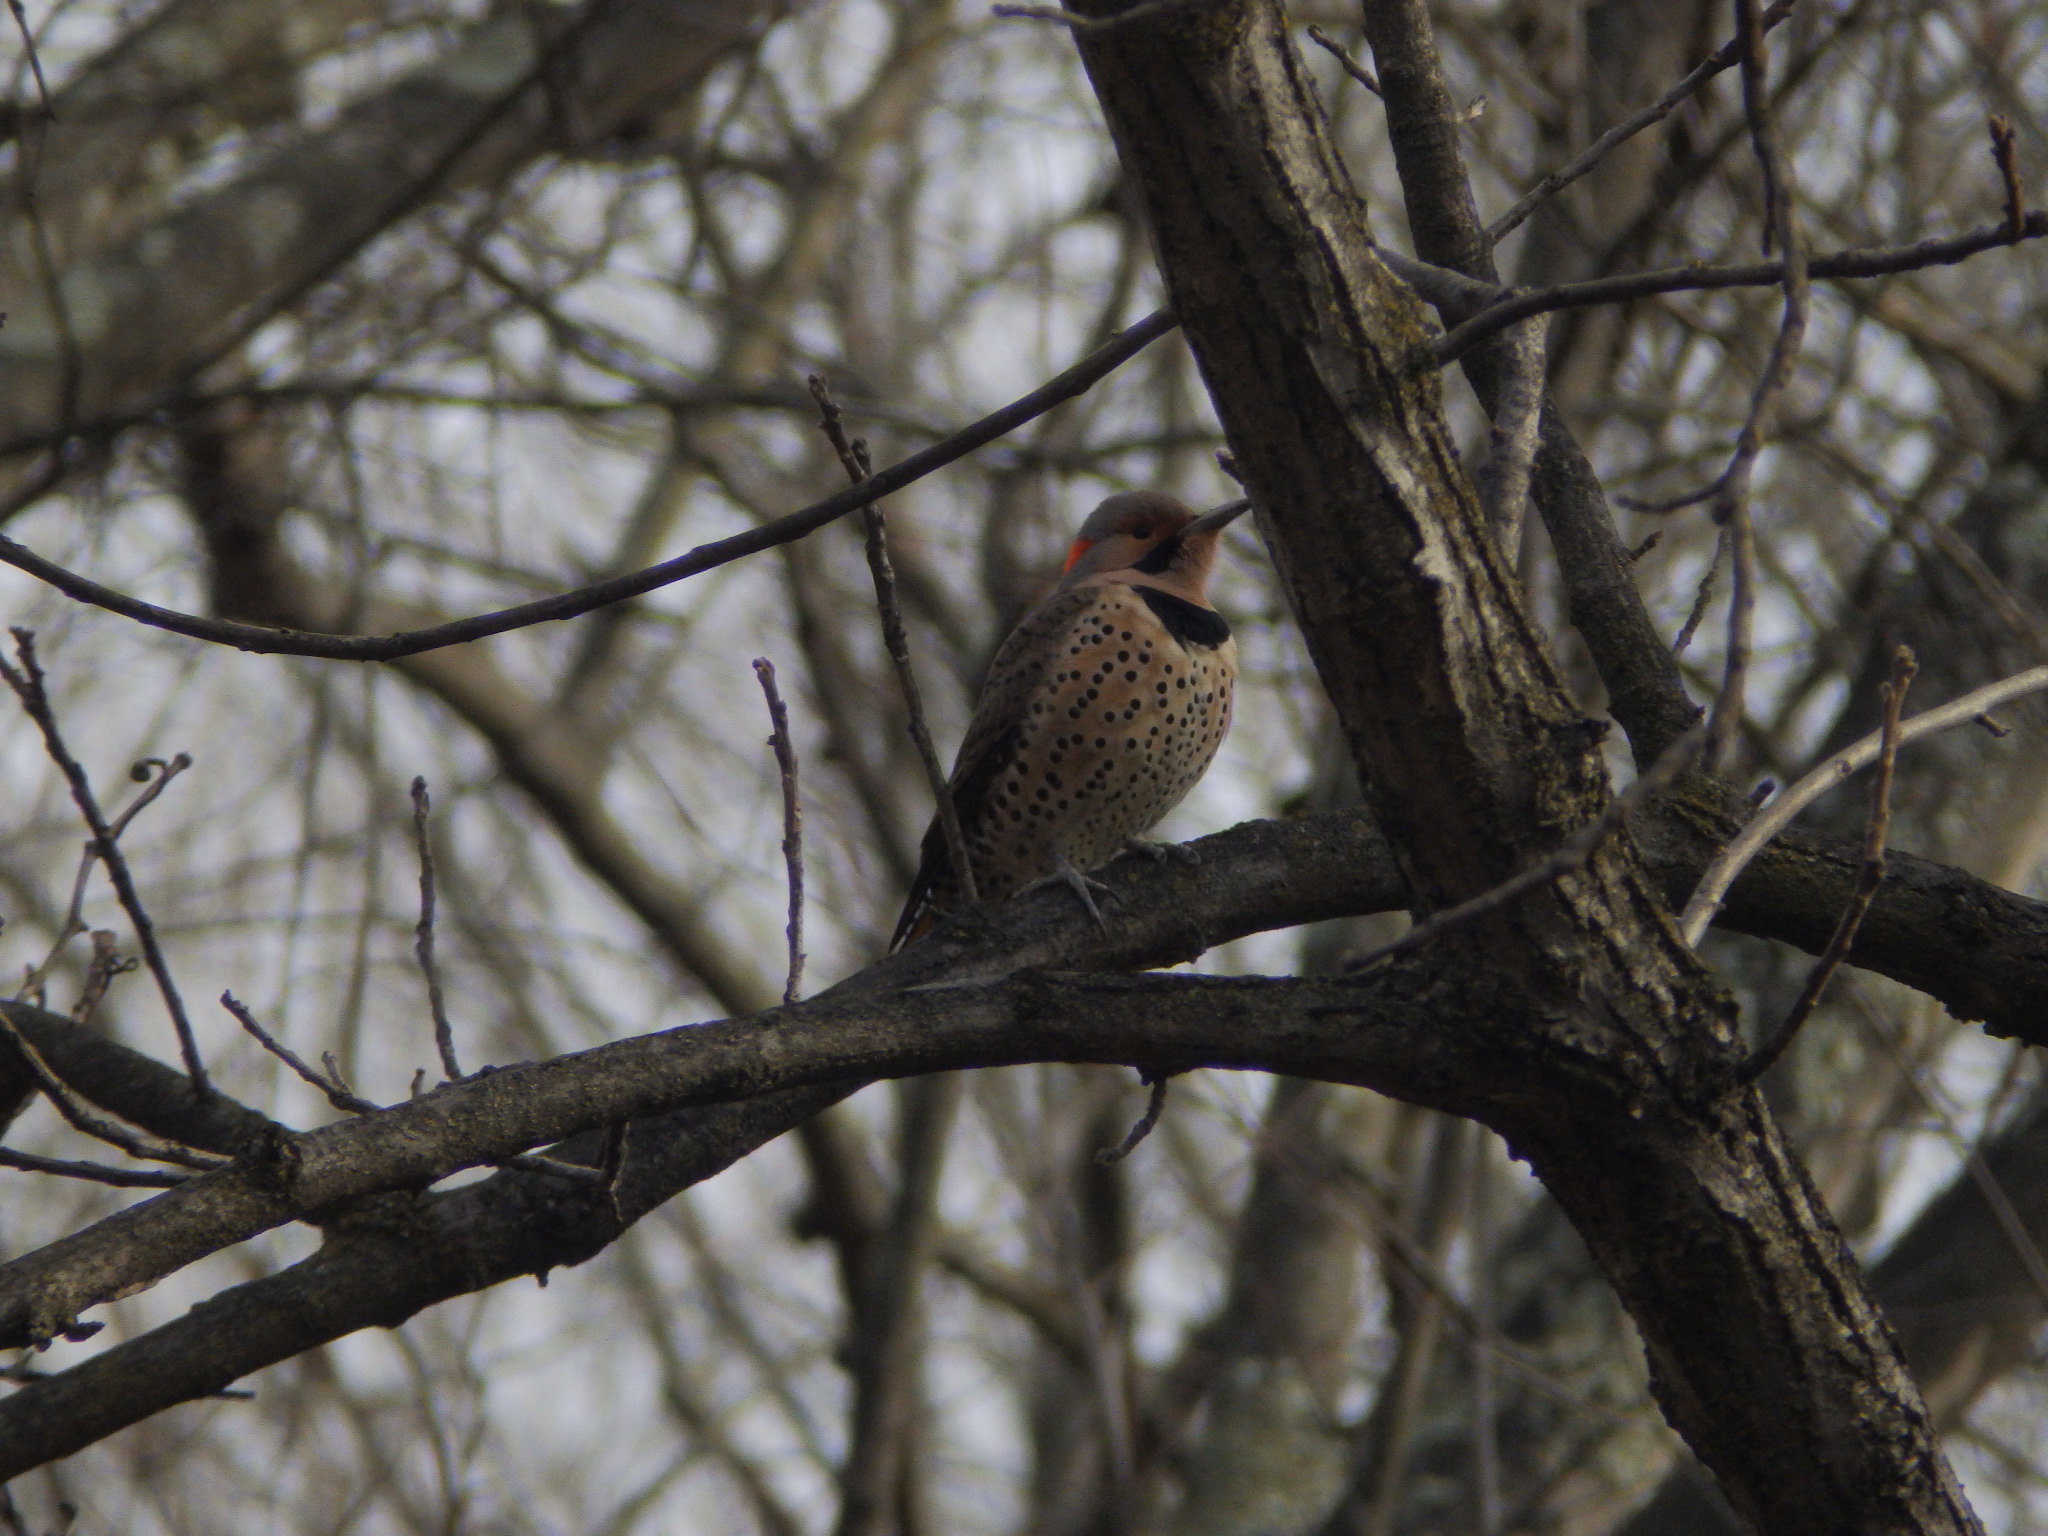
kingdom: Animalia
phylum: Chordata
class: Aves
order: Piciformes
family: Picidae
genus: Colaptes
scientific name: Colaptes auratus
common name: Northern flicker
